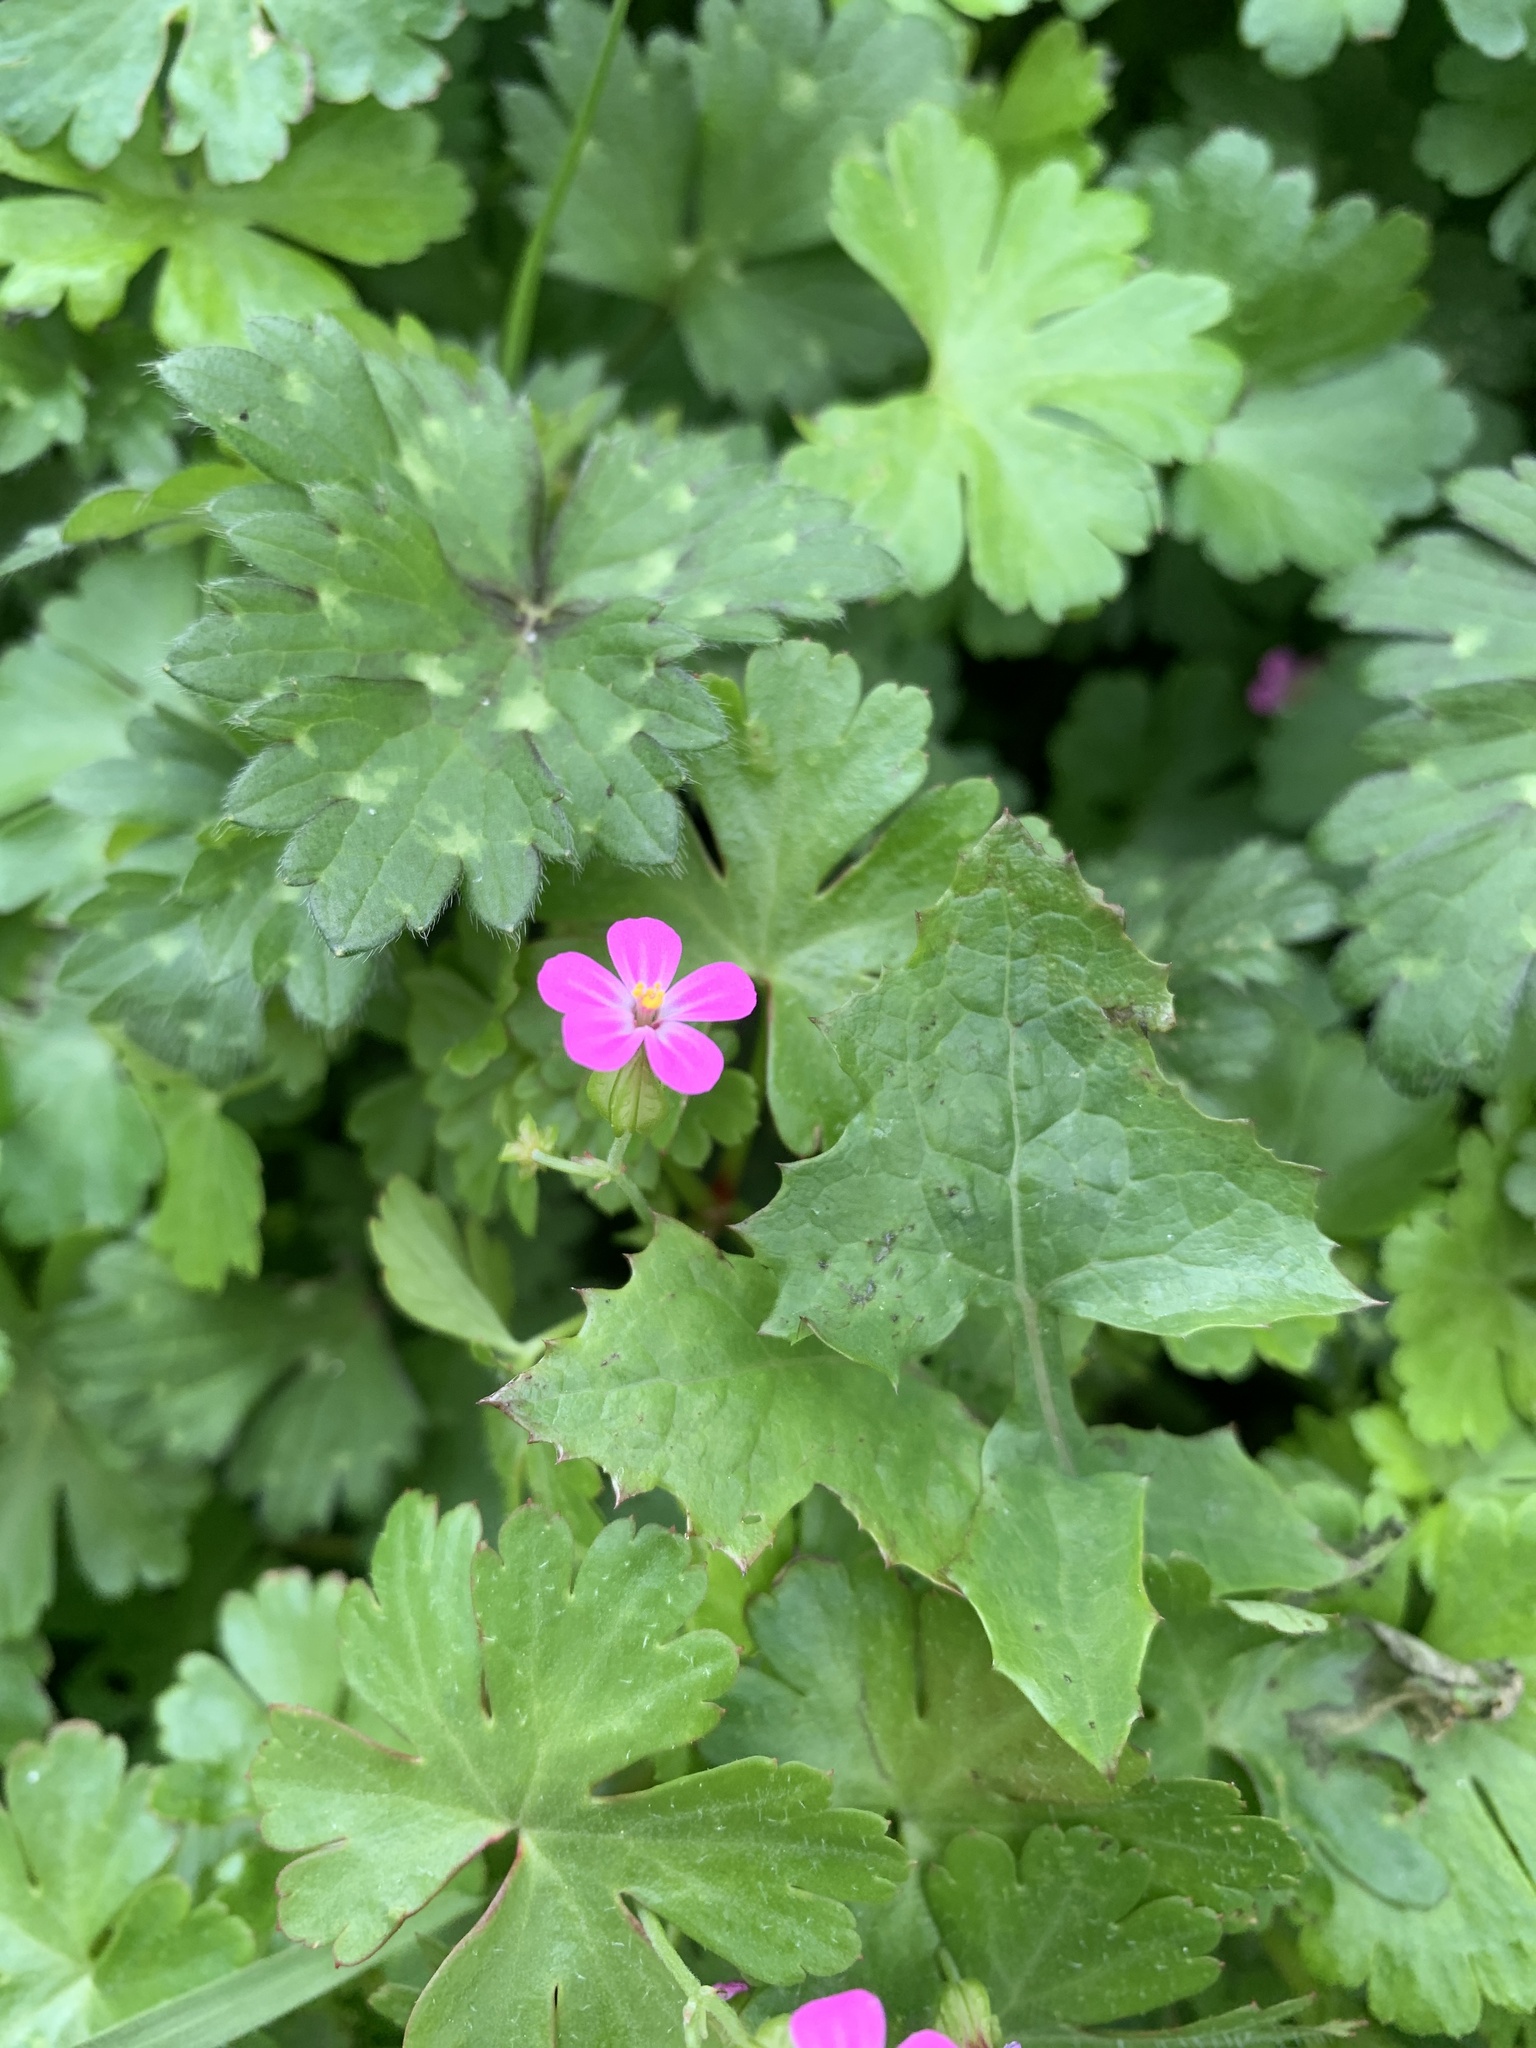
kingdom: Plantae
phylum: Tracheophyta
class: Magnoliopsida
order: Geraniales
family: Geraniaceae
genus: Geranium
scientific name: Geranium lucidum
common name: Shining crane's-bill
